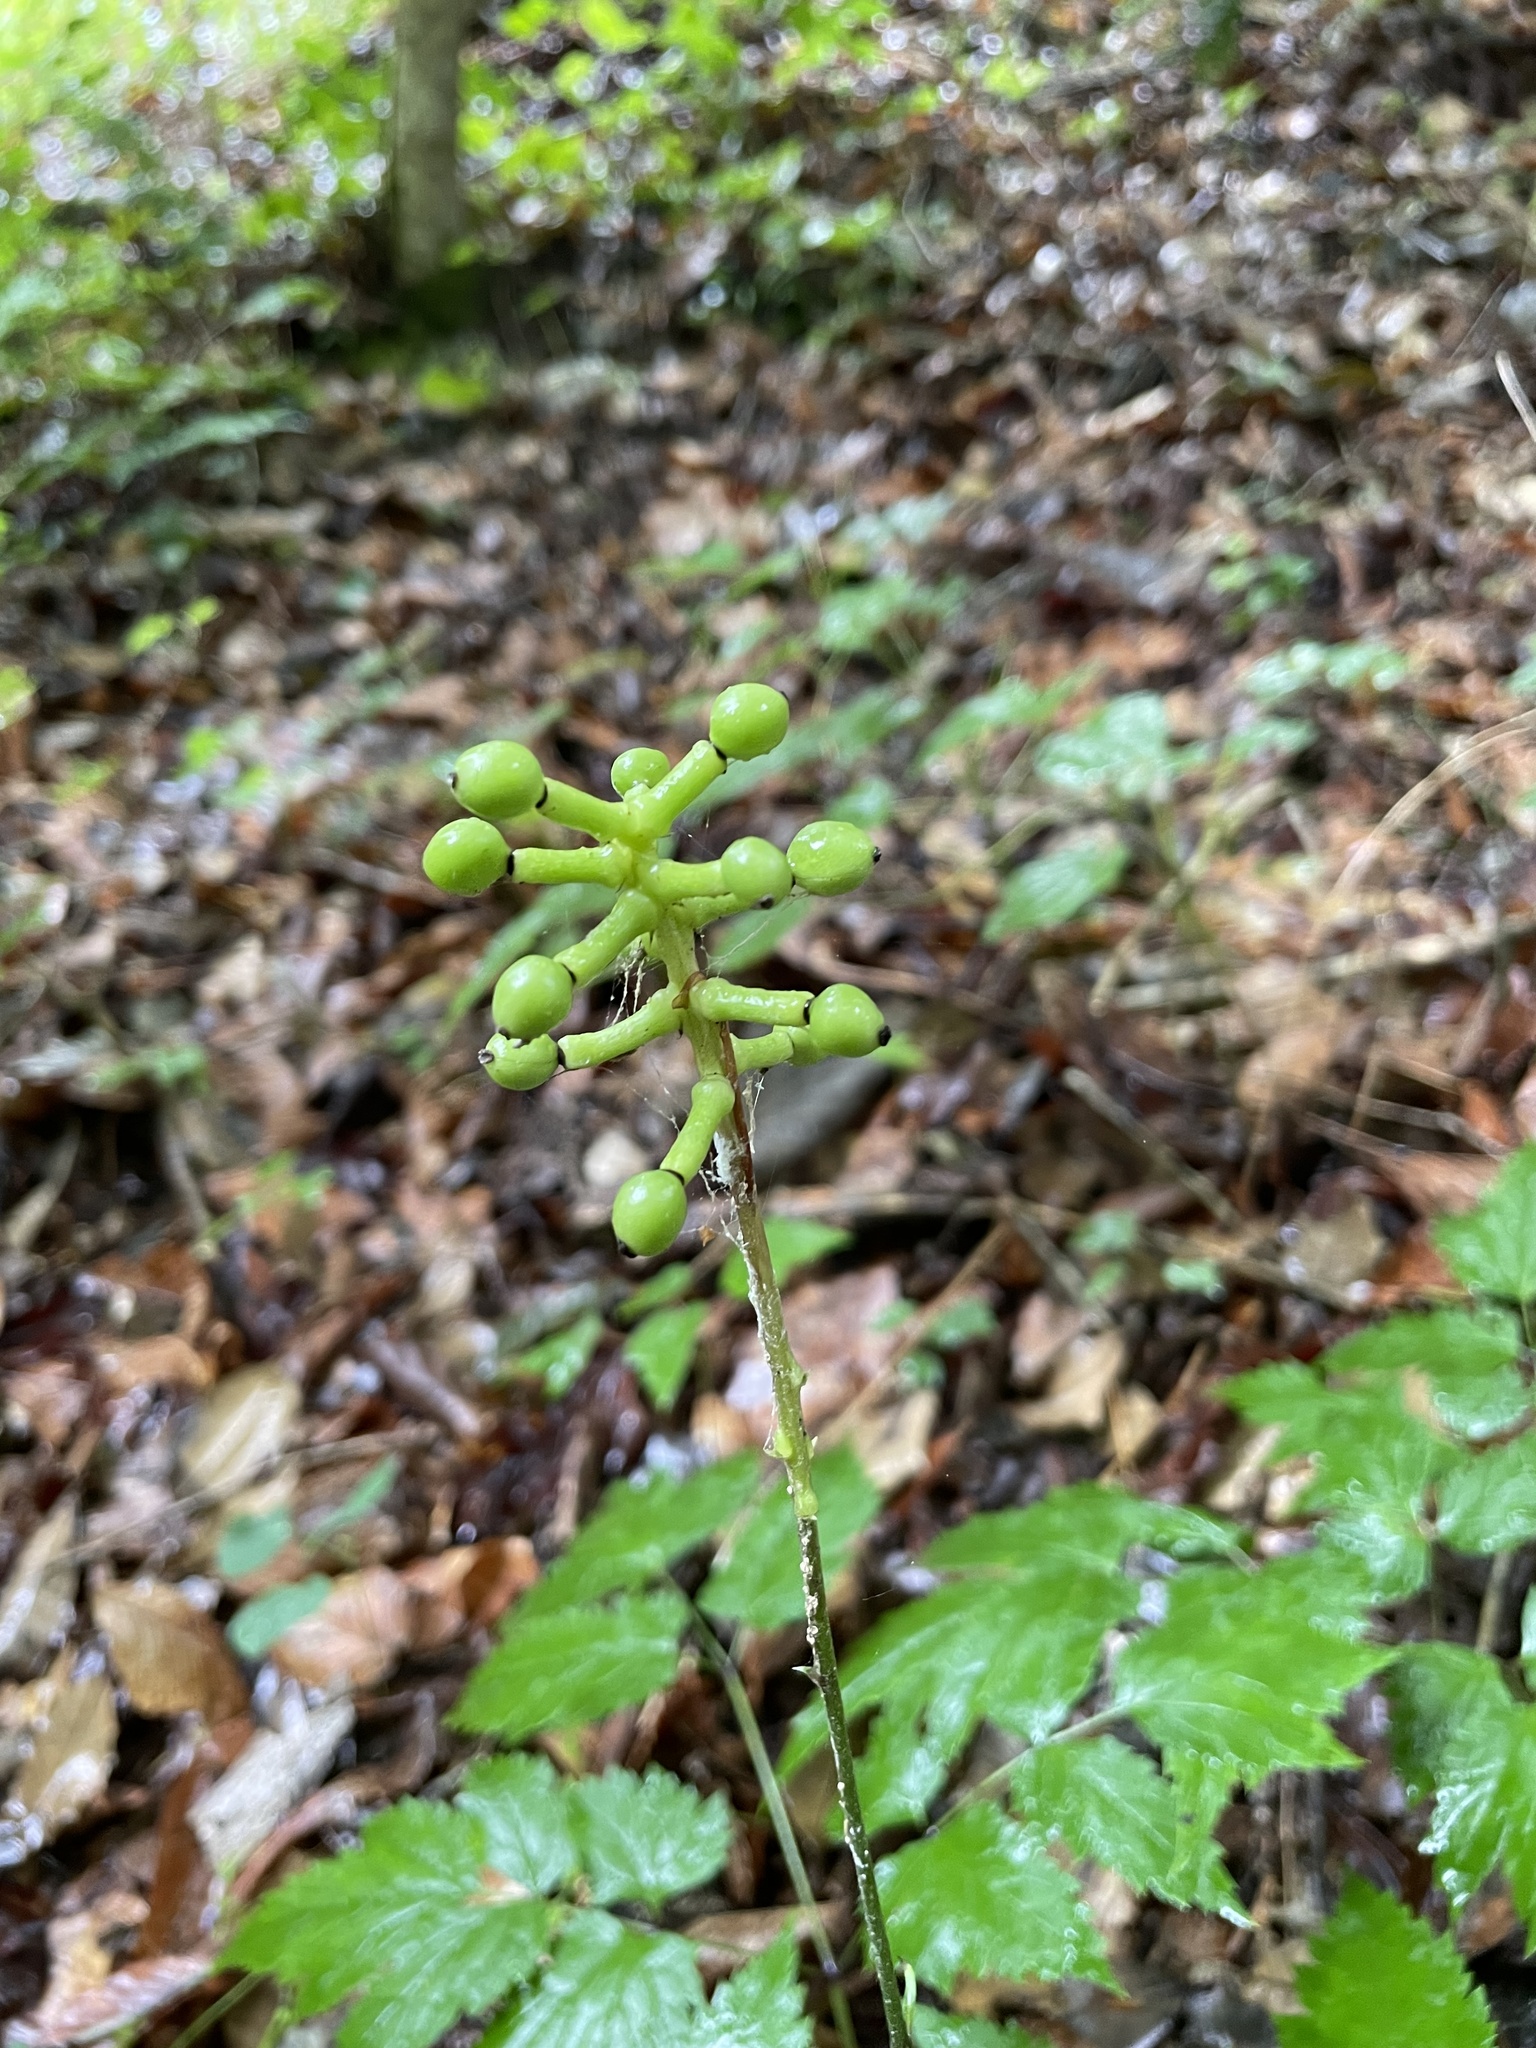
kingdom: Plantae
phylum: Tracheophyta
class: Magnoliopsida
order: Ranunculales
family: Ranunculaceae
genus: Actaea
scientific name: Actaea pachypoda
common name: Doll's-eyes
